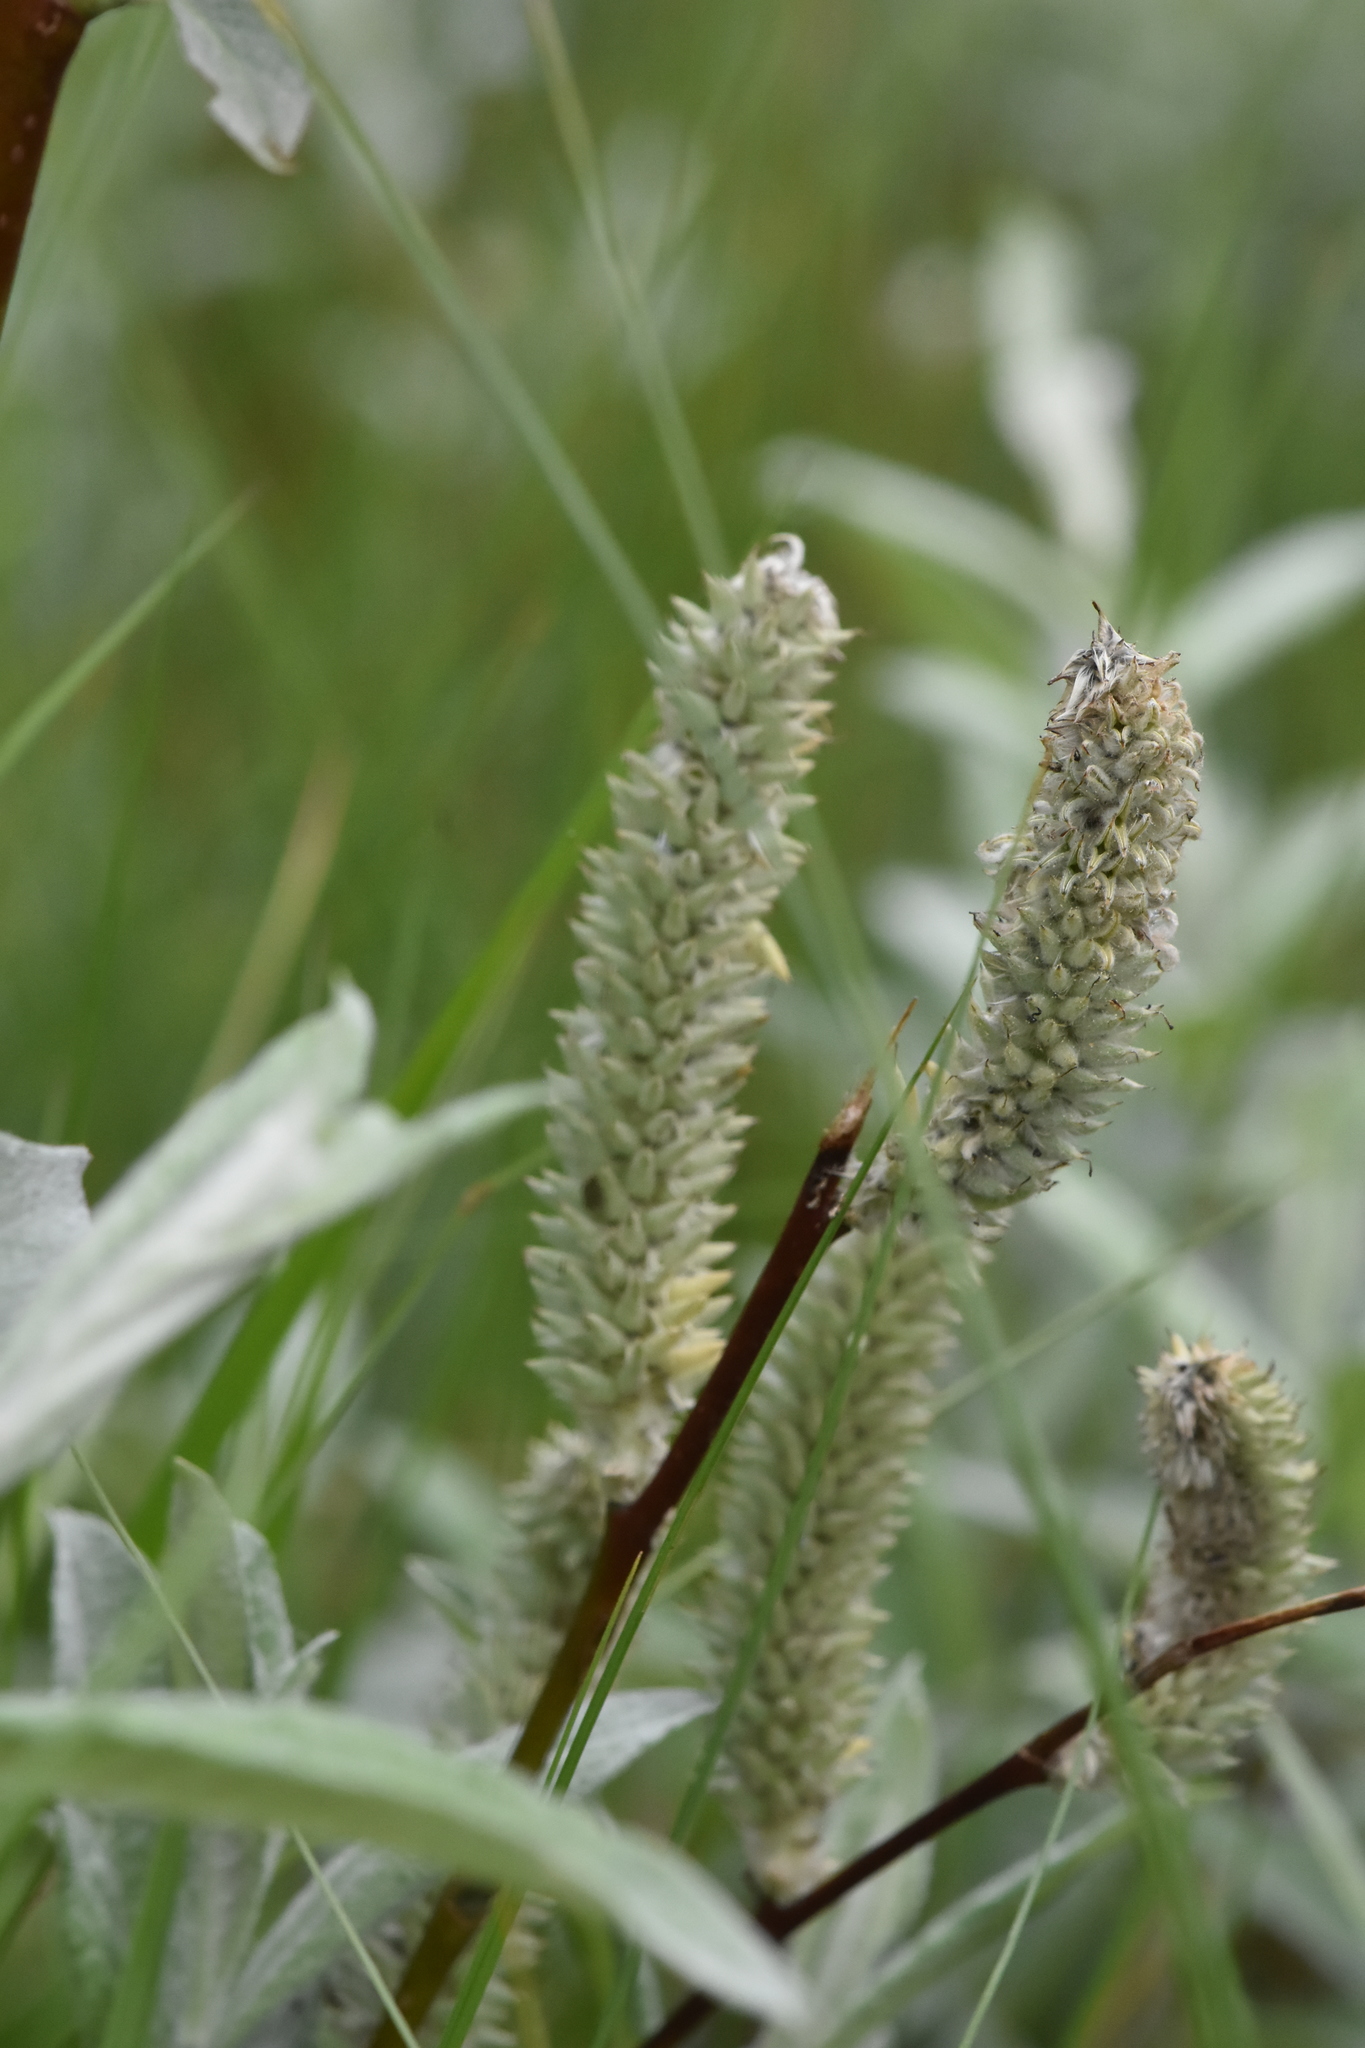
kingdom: Plantae
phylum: Tracheophyta
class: Magnoliopsida
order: Malpighiales
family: Salicaceae
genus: Salix
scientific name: Salix lapponum
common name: Downy willow
